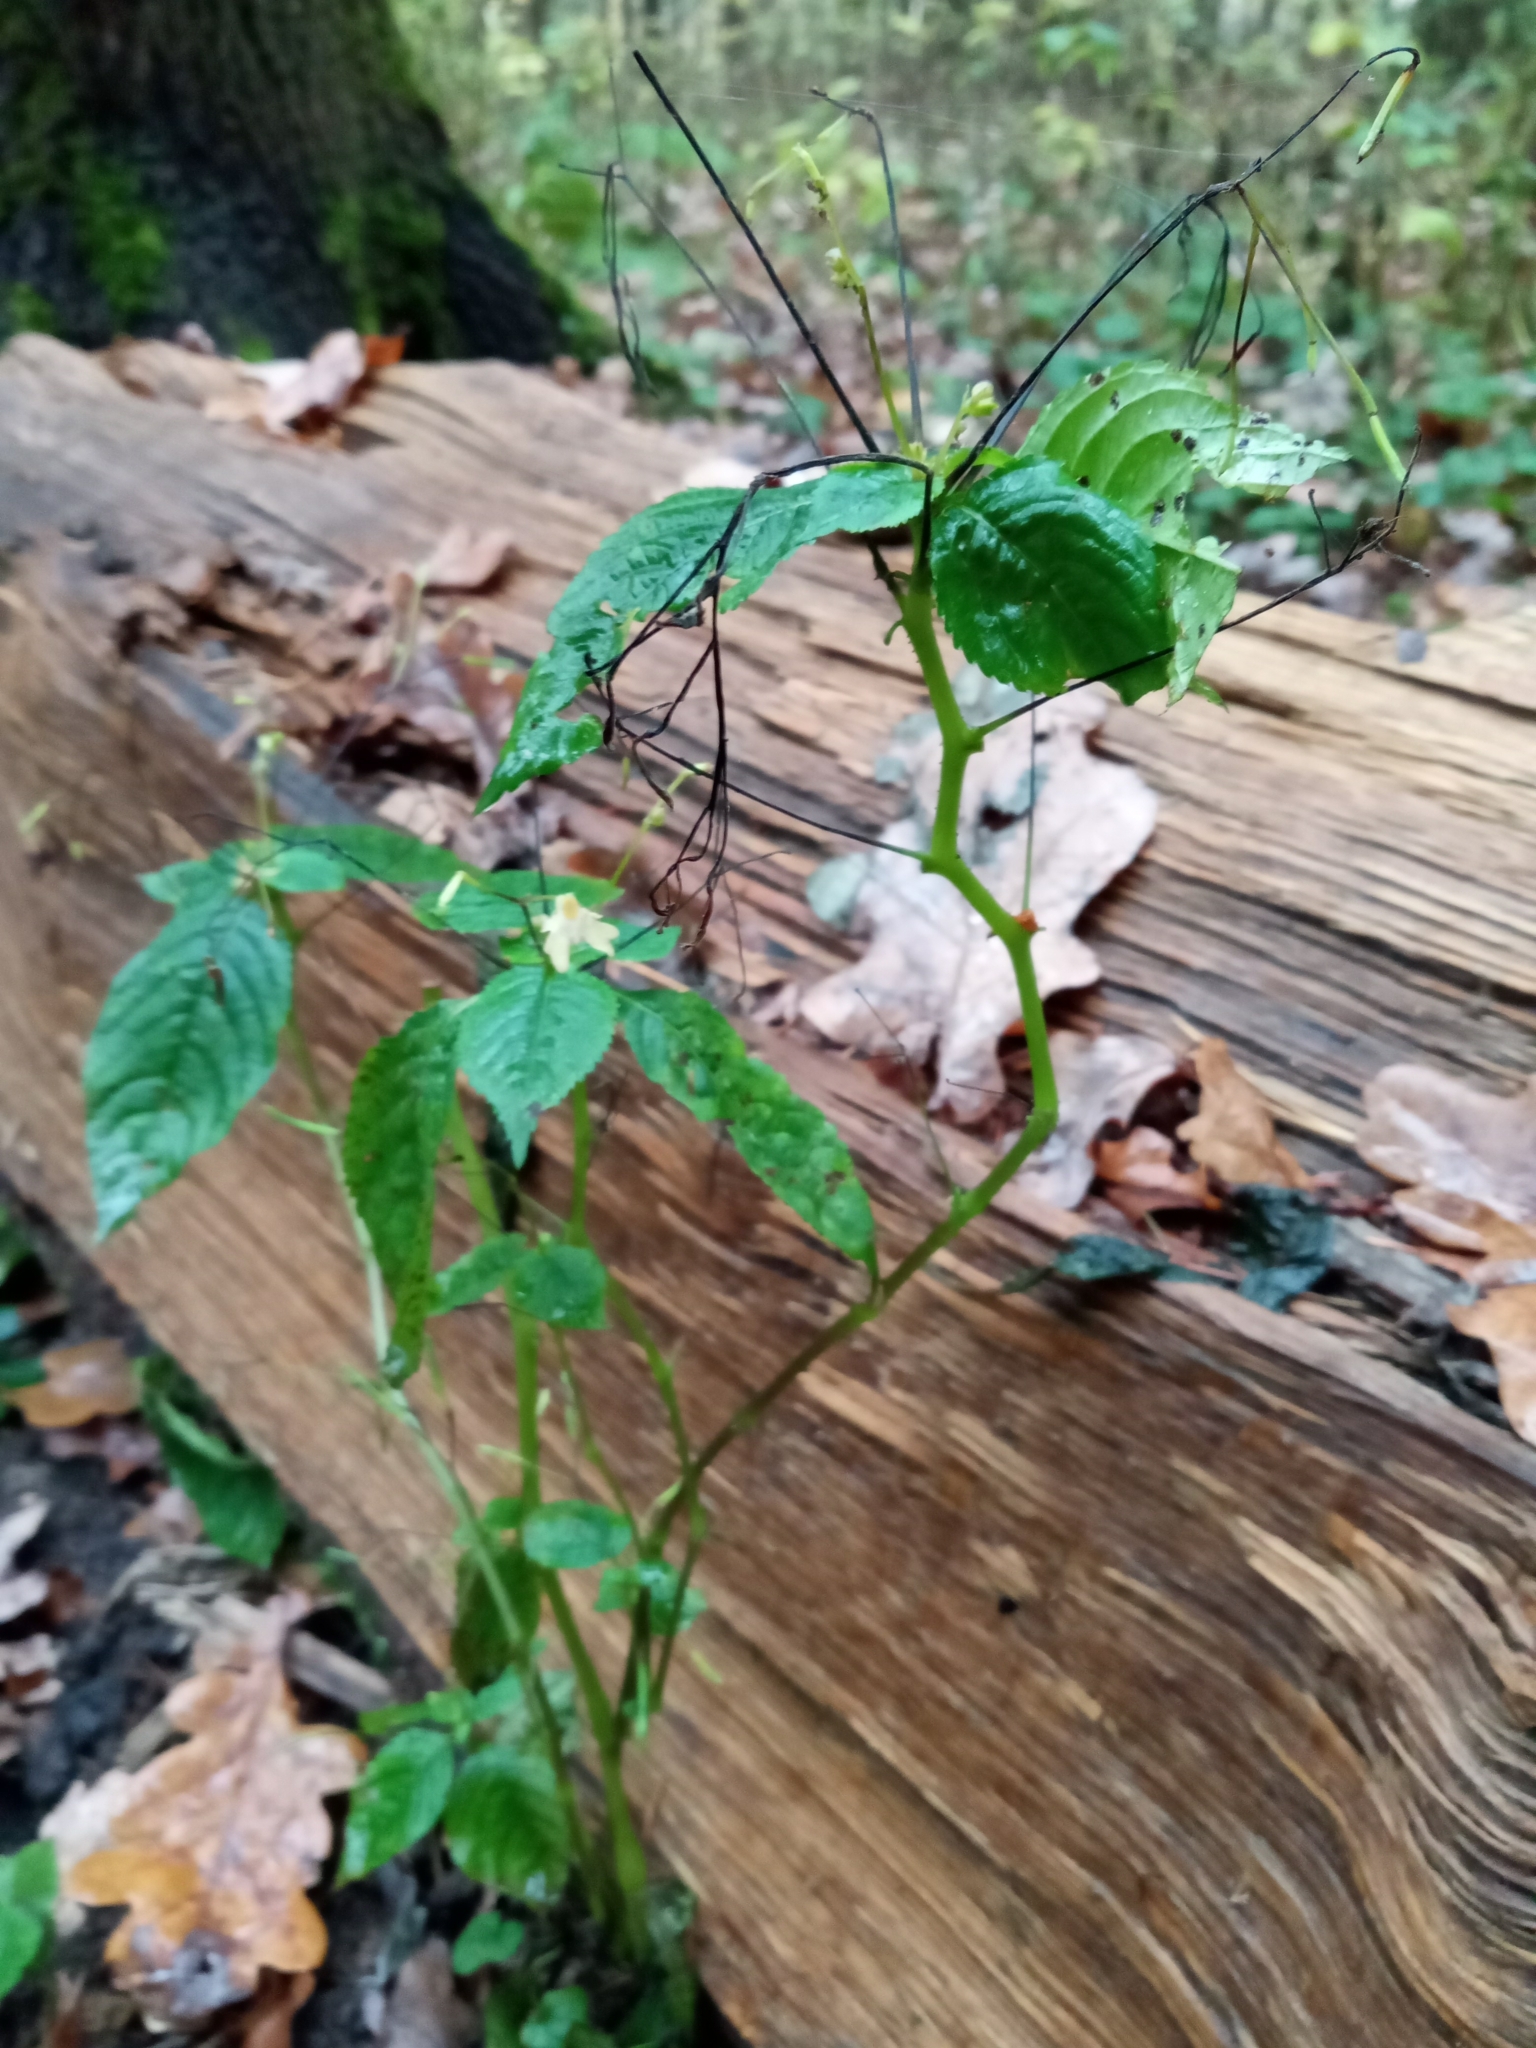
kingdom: Plantae
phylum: Tracheophyta
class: Magnoliopsida
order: Ericales
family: Balsaminaceae
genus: Impatiens
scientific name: Impatiens parviflora
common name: Small balsam
